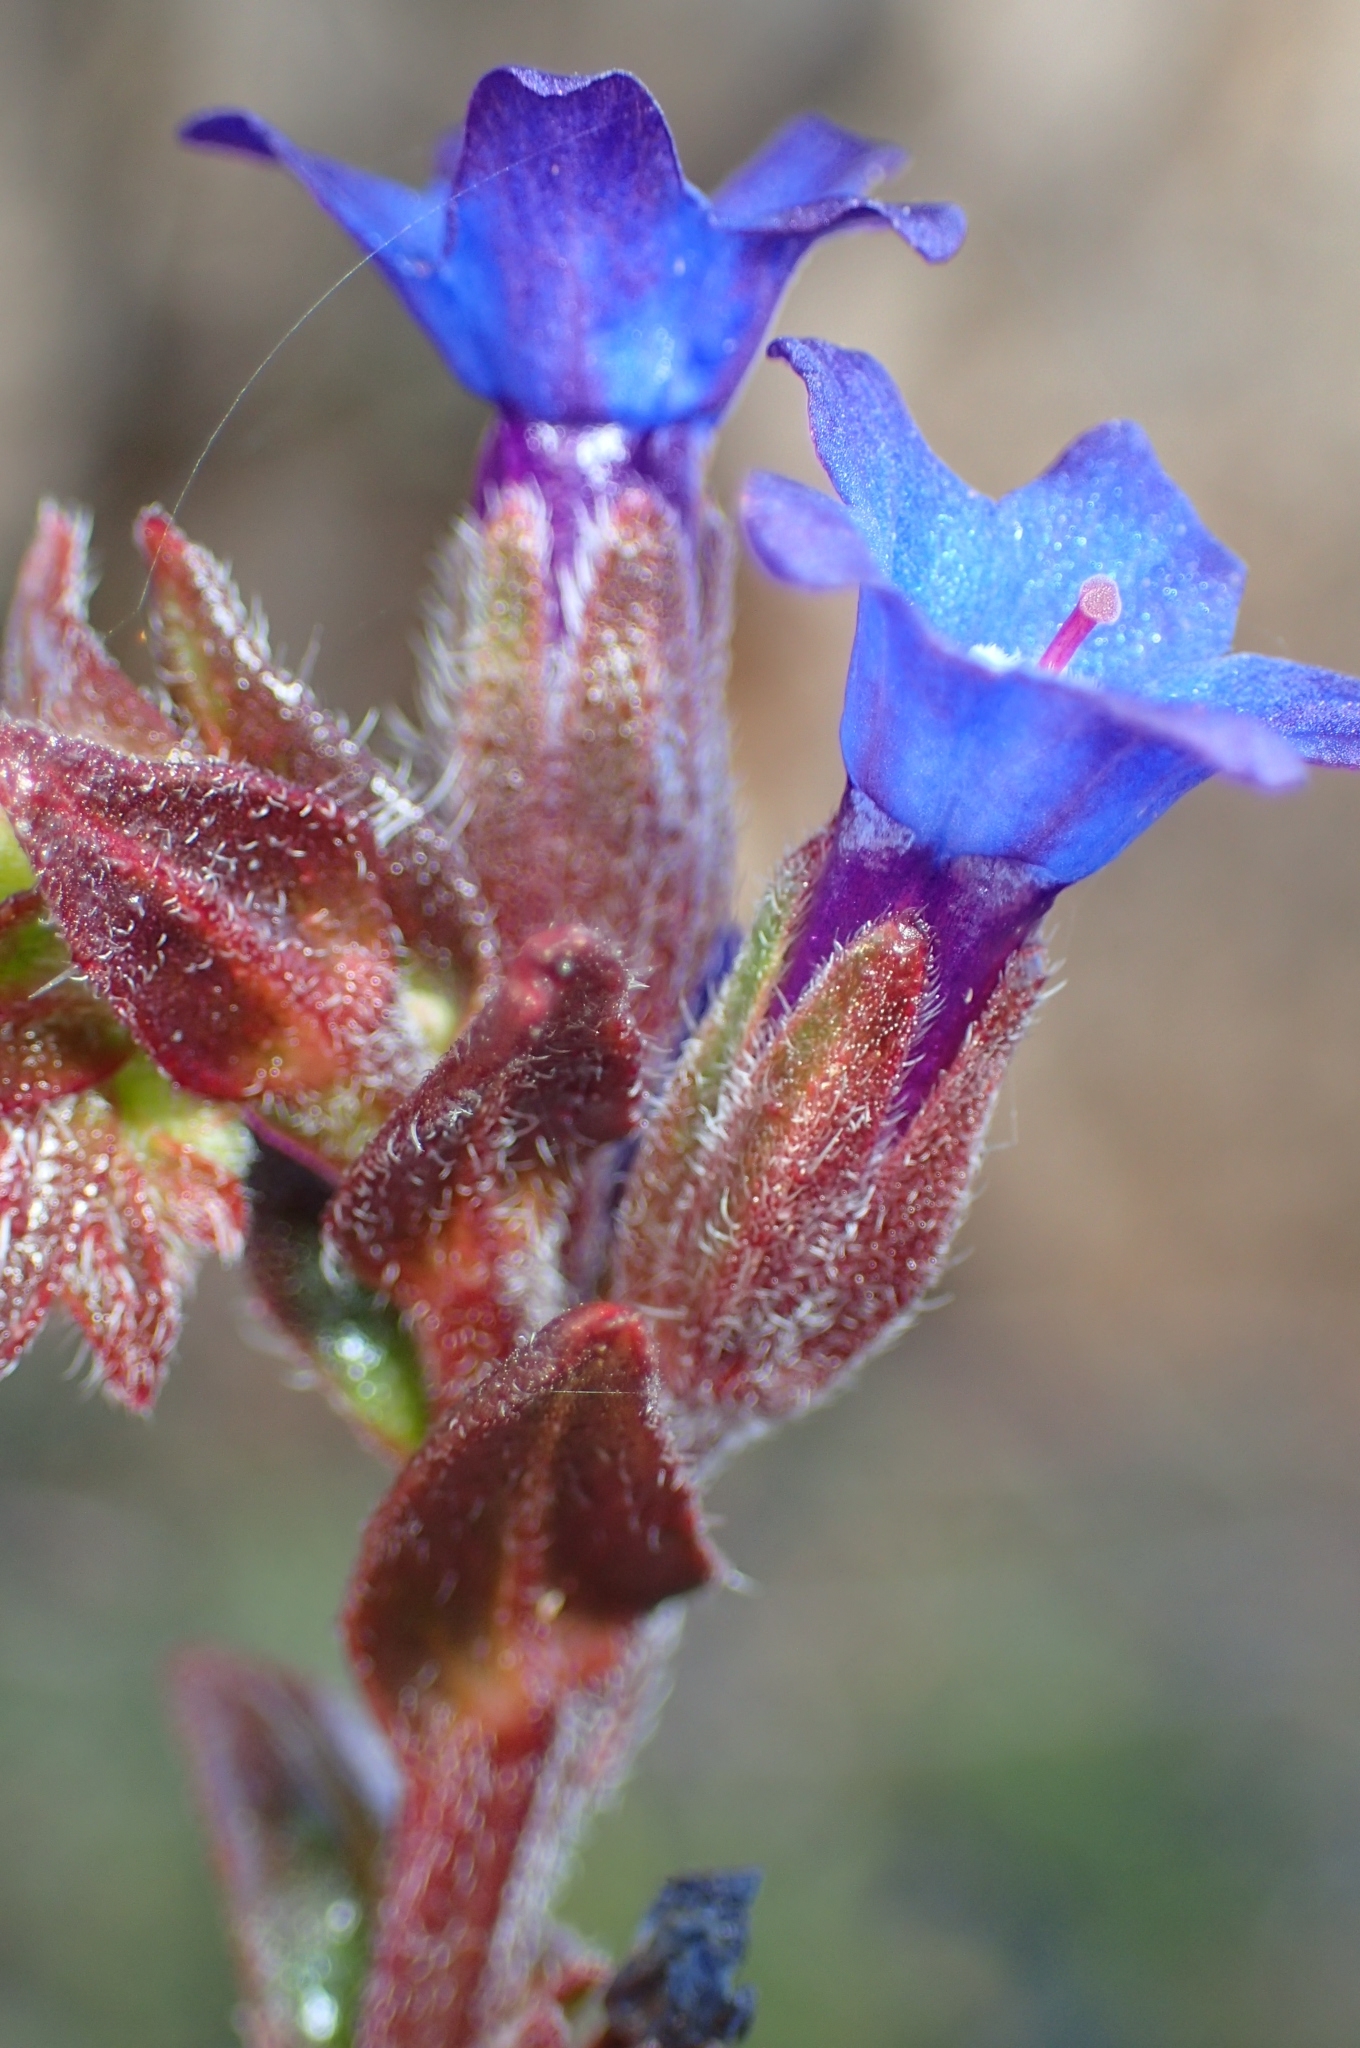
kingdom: Plantae
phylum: Tracheophyta
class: Magnoliopsida
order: Boraginales
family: Boraginaceae
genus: Anchusa
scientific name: Anchusa undulata
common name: Undulate alkanet
